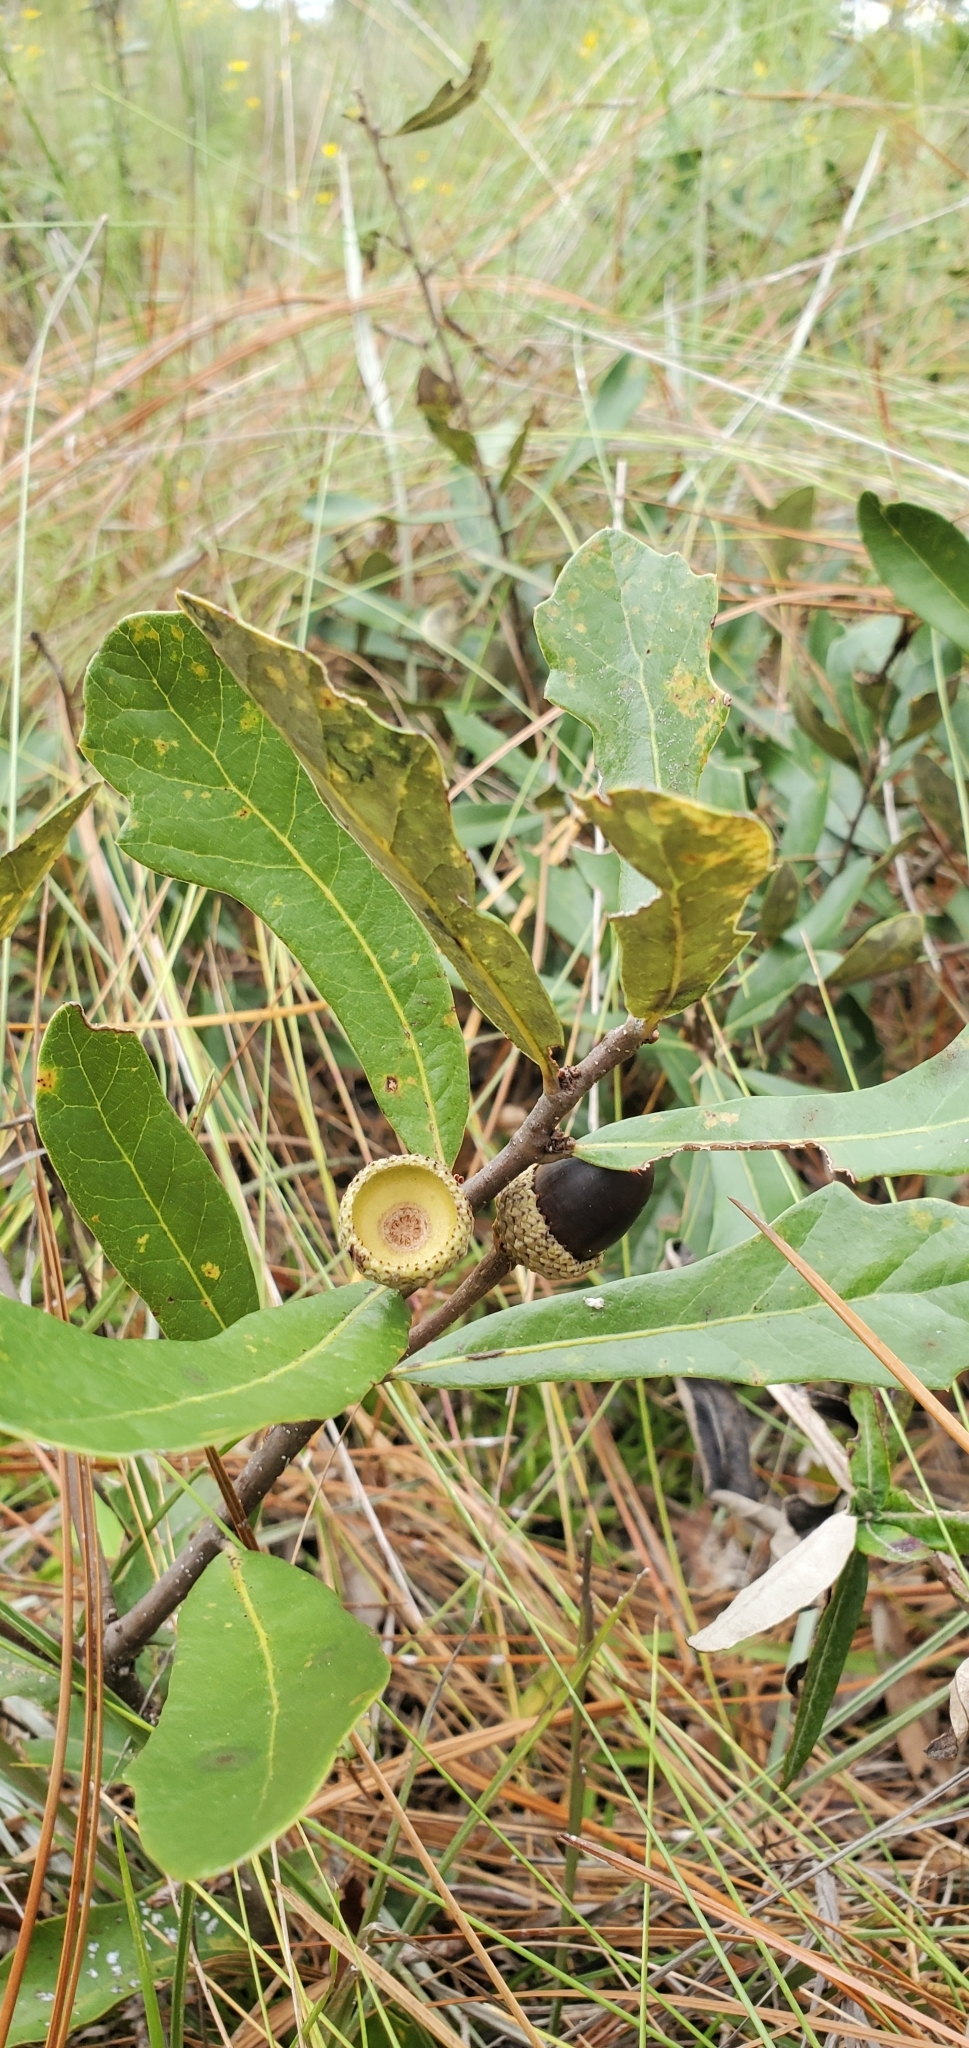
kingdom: Plantae
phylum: Tracheophyta
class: Magnoliopsida
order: Fagales
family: Fagaceae
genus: Quercus
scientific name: Quercus minima
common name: Dwarf live oak
